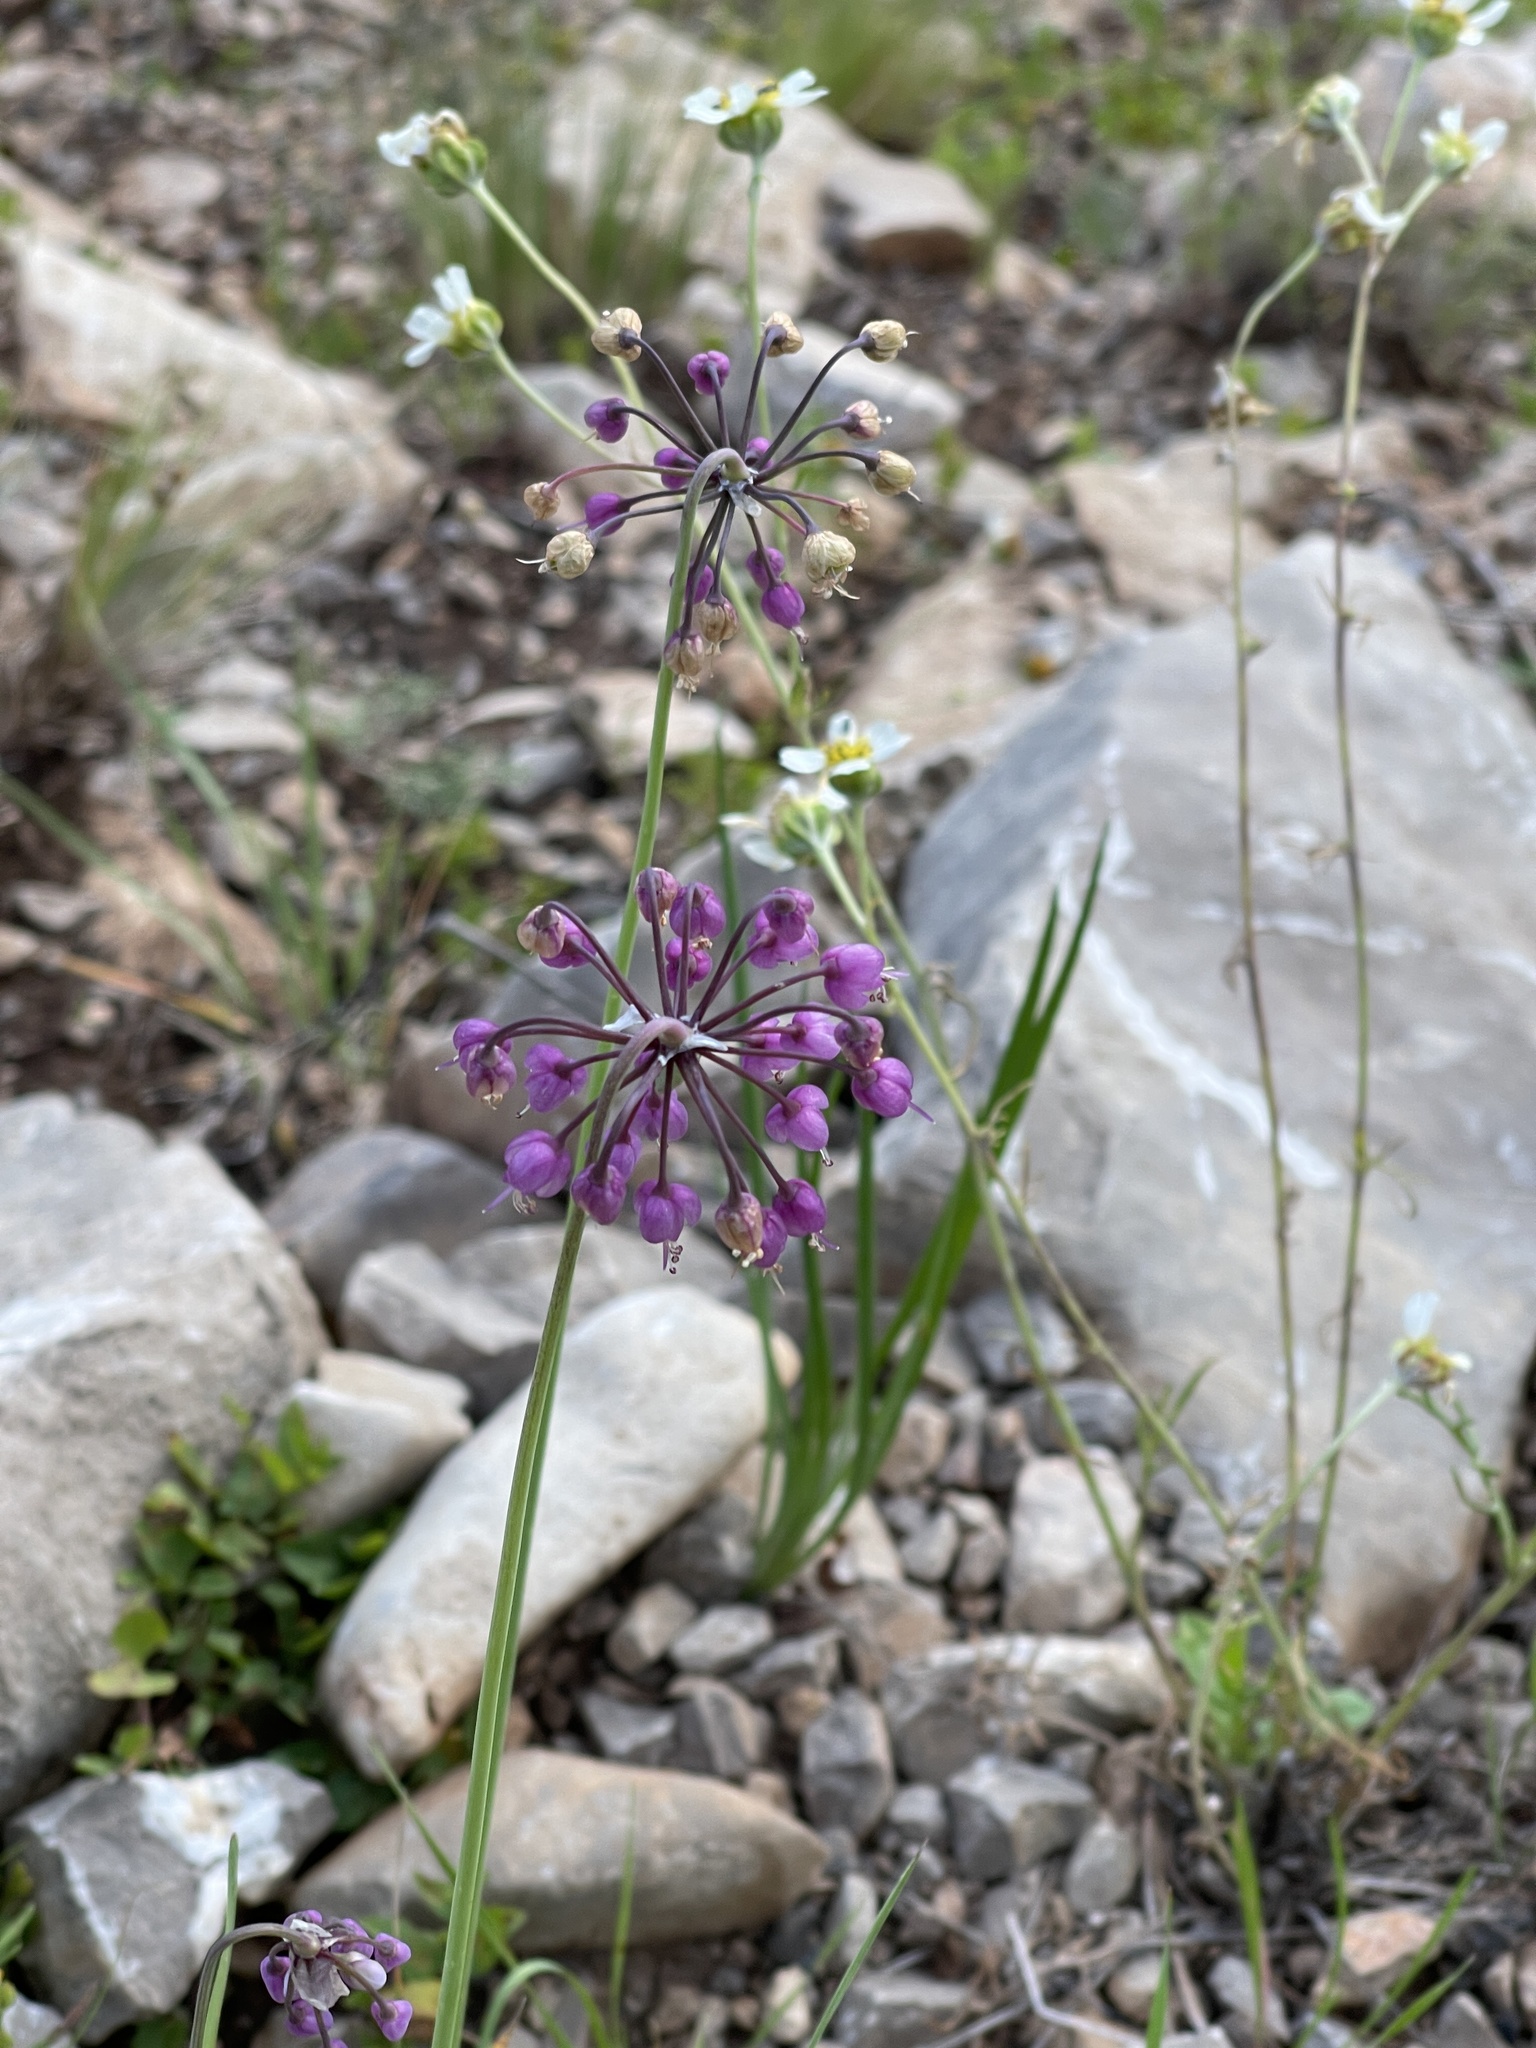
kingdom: Plantae
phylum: Tracheophyta
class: Liliopsida
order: Asparagales
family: Amaryllidaceae
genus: Allium
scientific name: Allium cernuum
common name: Nodding onion
